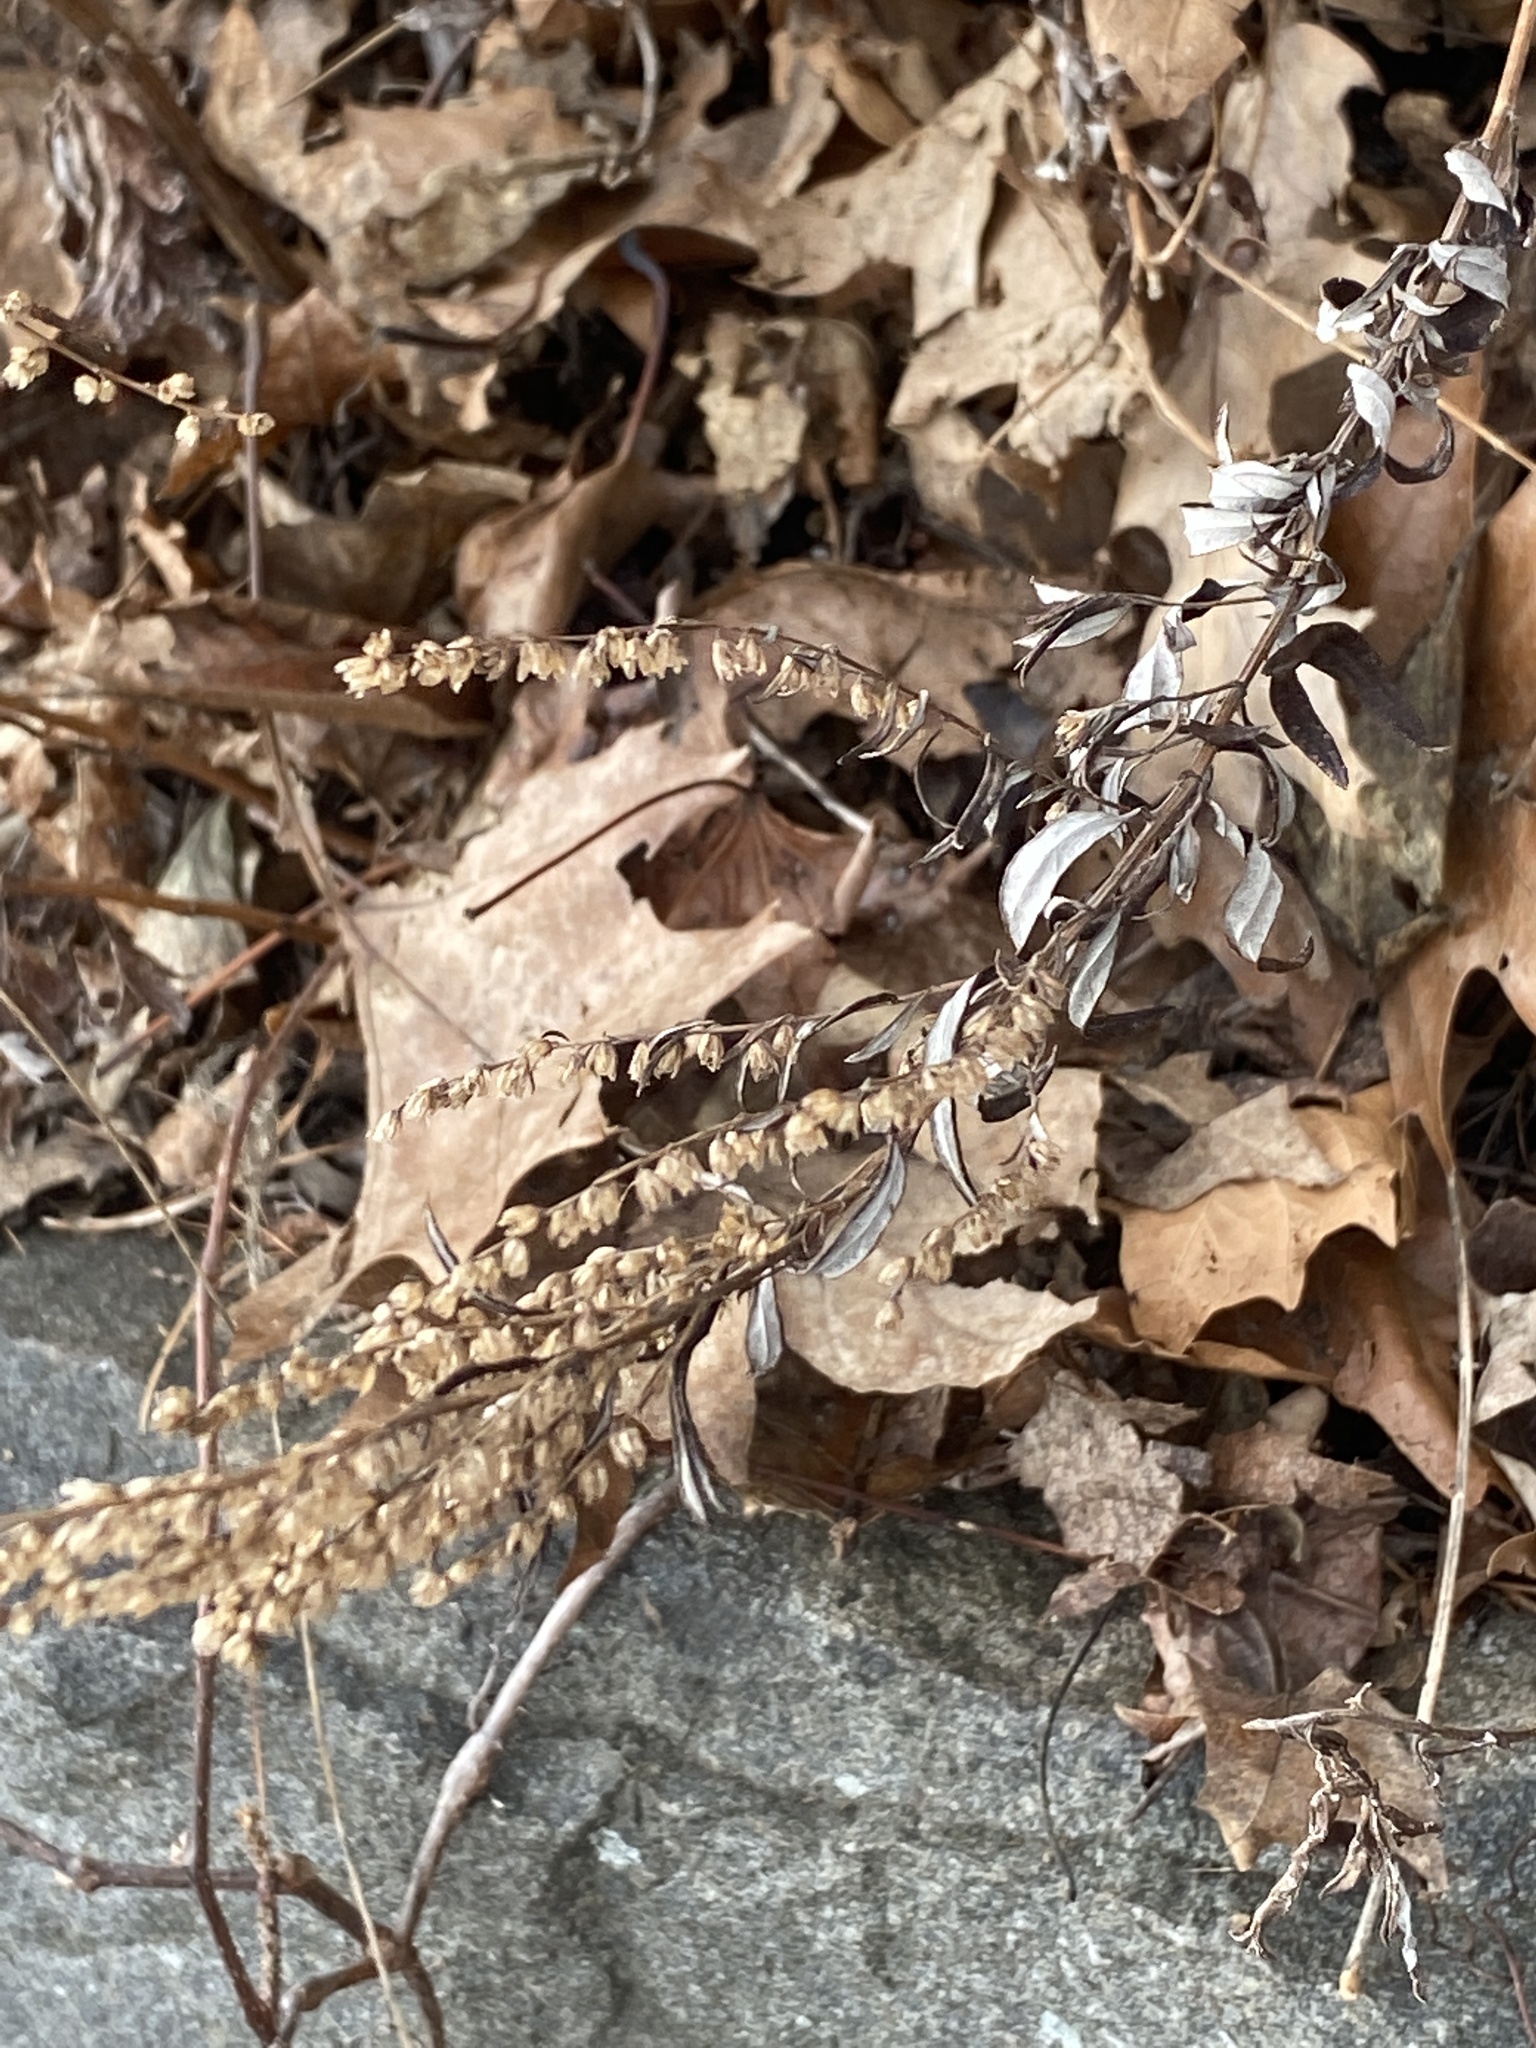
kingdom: Plantae
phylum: Tracheophyta
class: Magnoliopsida
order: Asterales
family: Asteraceae
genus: Artemisia
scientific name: Artemisia vulgaris
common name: Mugwort
